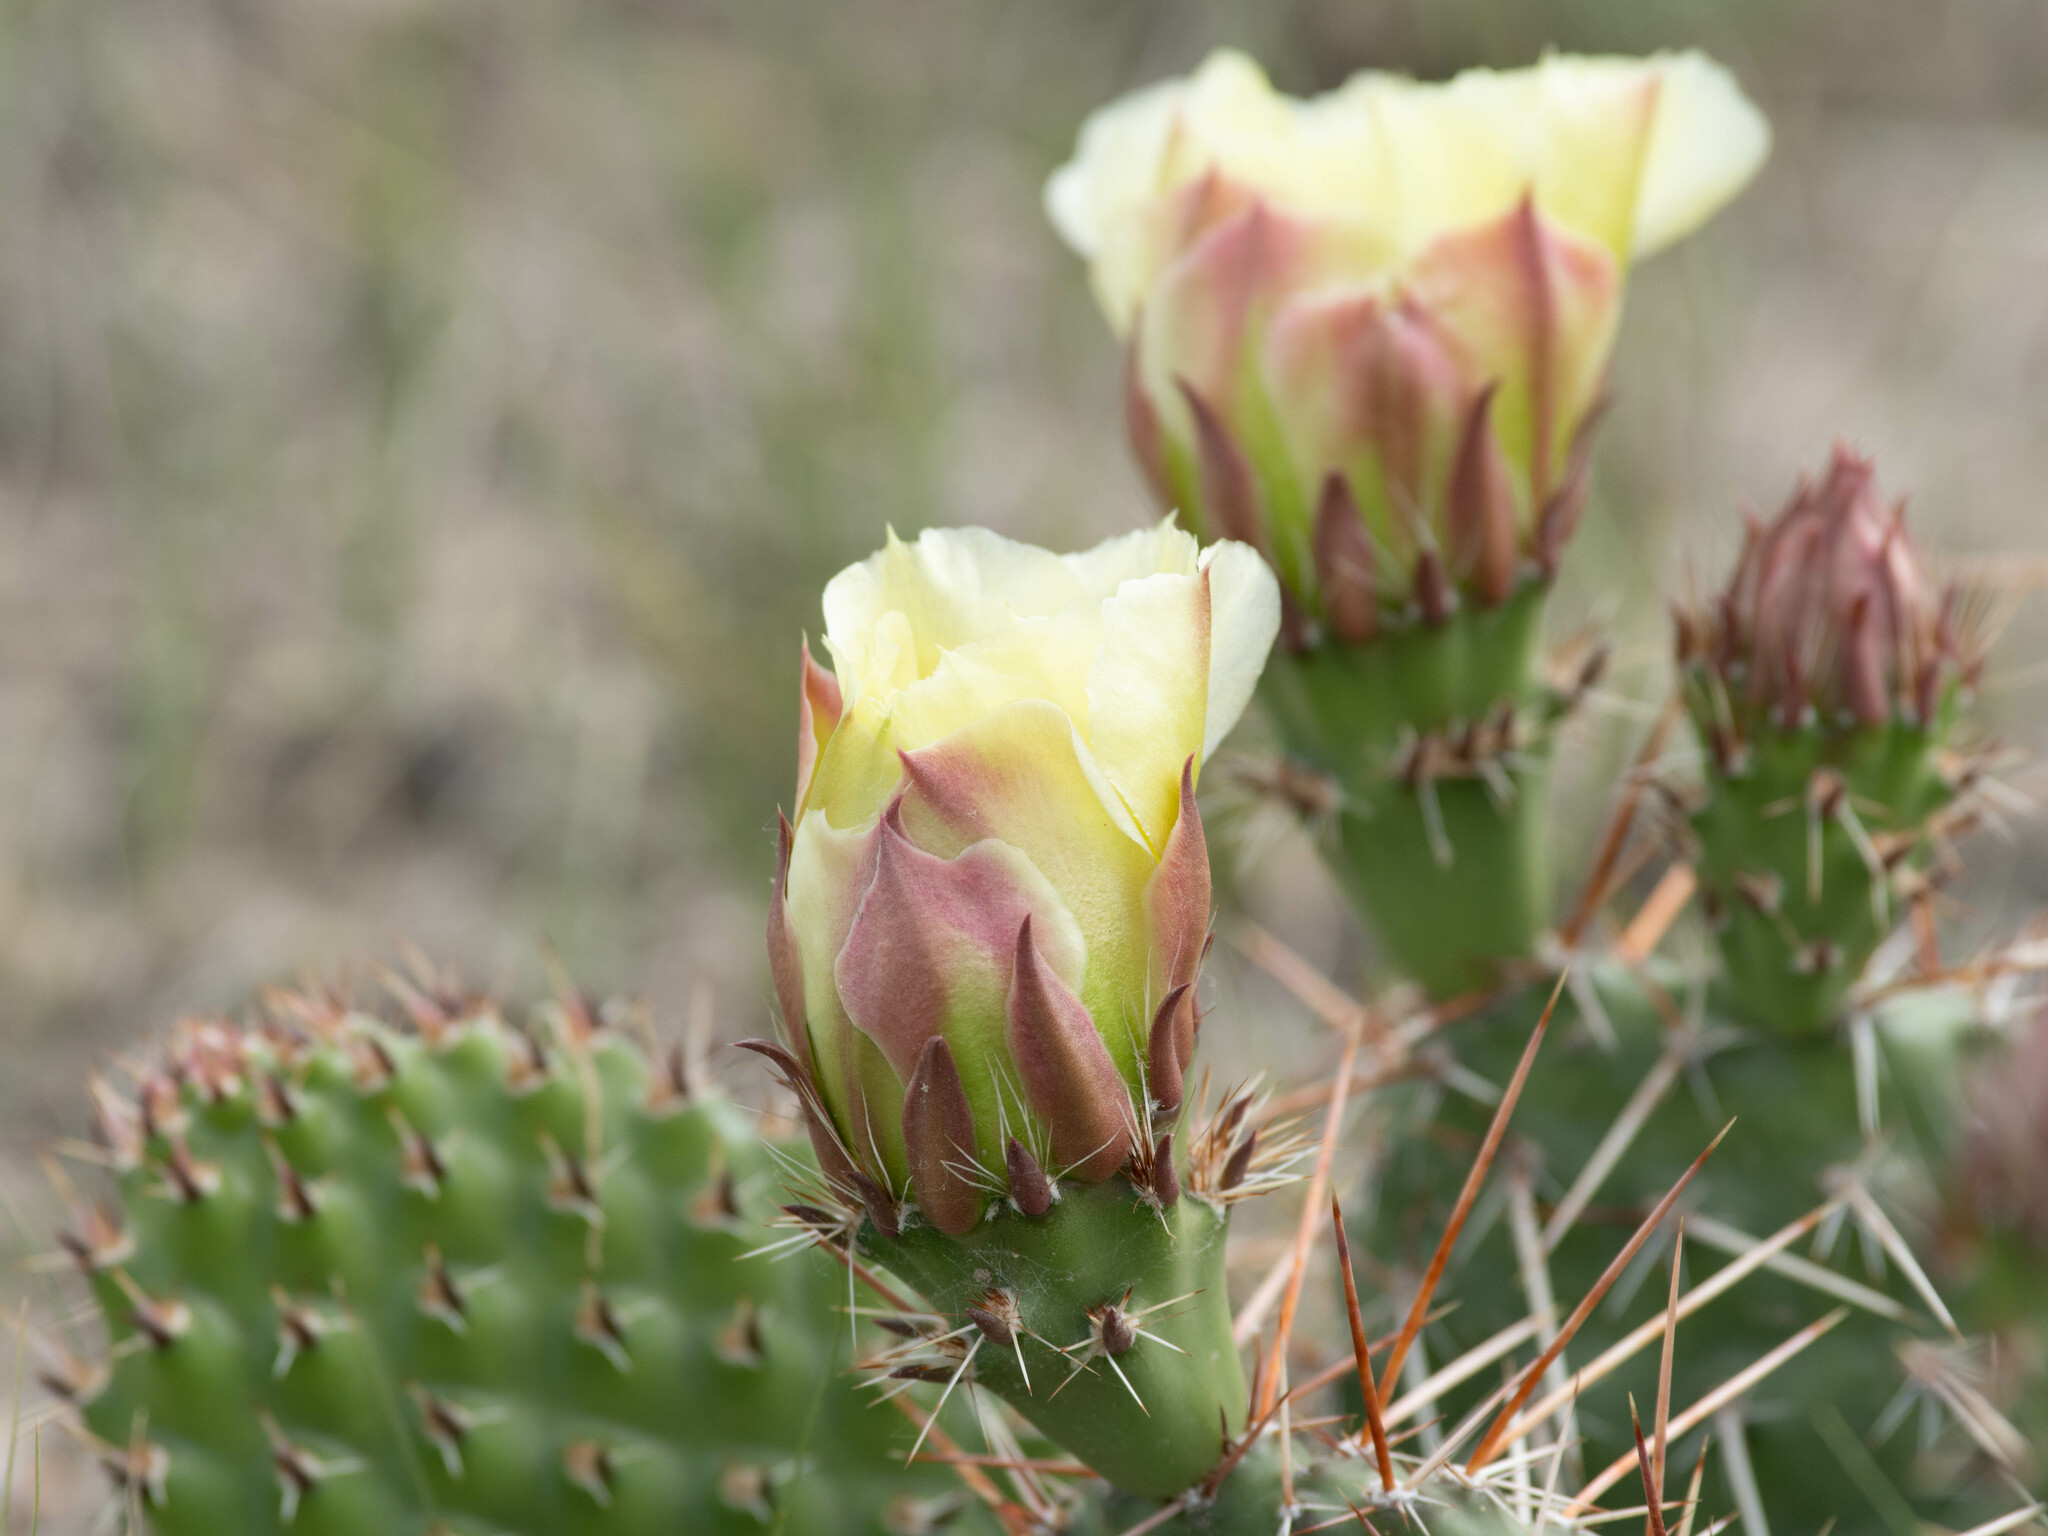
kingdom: Plantae
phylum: Tracheophyta
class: Magnoliopsida
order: Caryophyllales
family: Cactaceae
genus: Opuntia
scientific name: Opuntia polyacantha
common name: Plains prickly-pear
